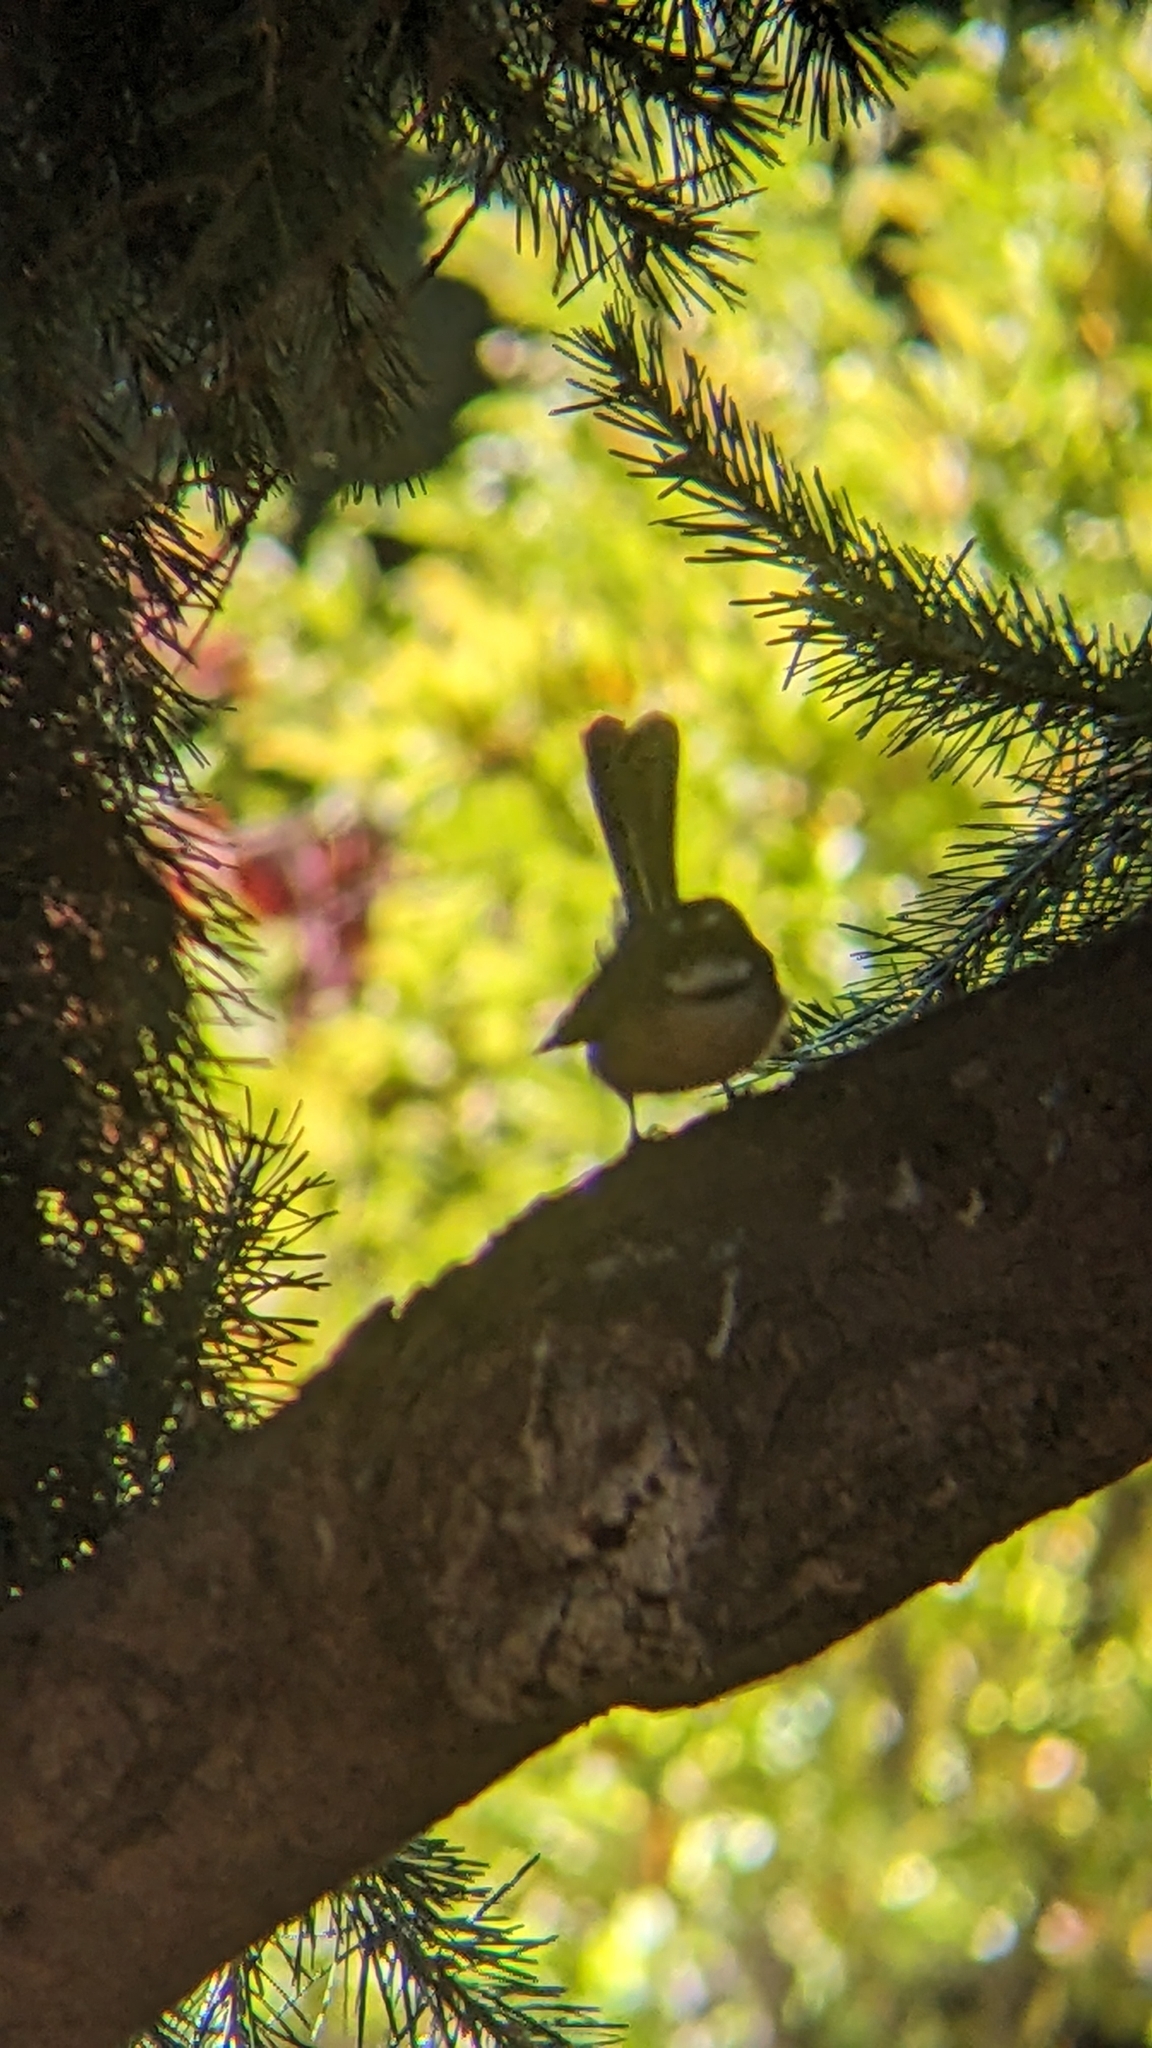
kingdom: Animalia
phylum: Chordata
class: Aves
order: Passeriformes
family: Rhipiduridae
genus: Rhipidura
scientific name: Rhipidura fuliginosa
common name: New zealand fantail
